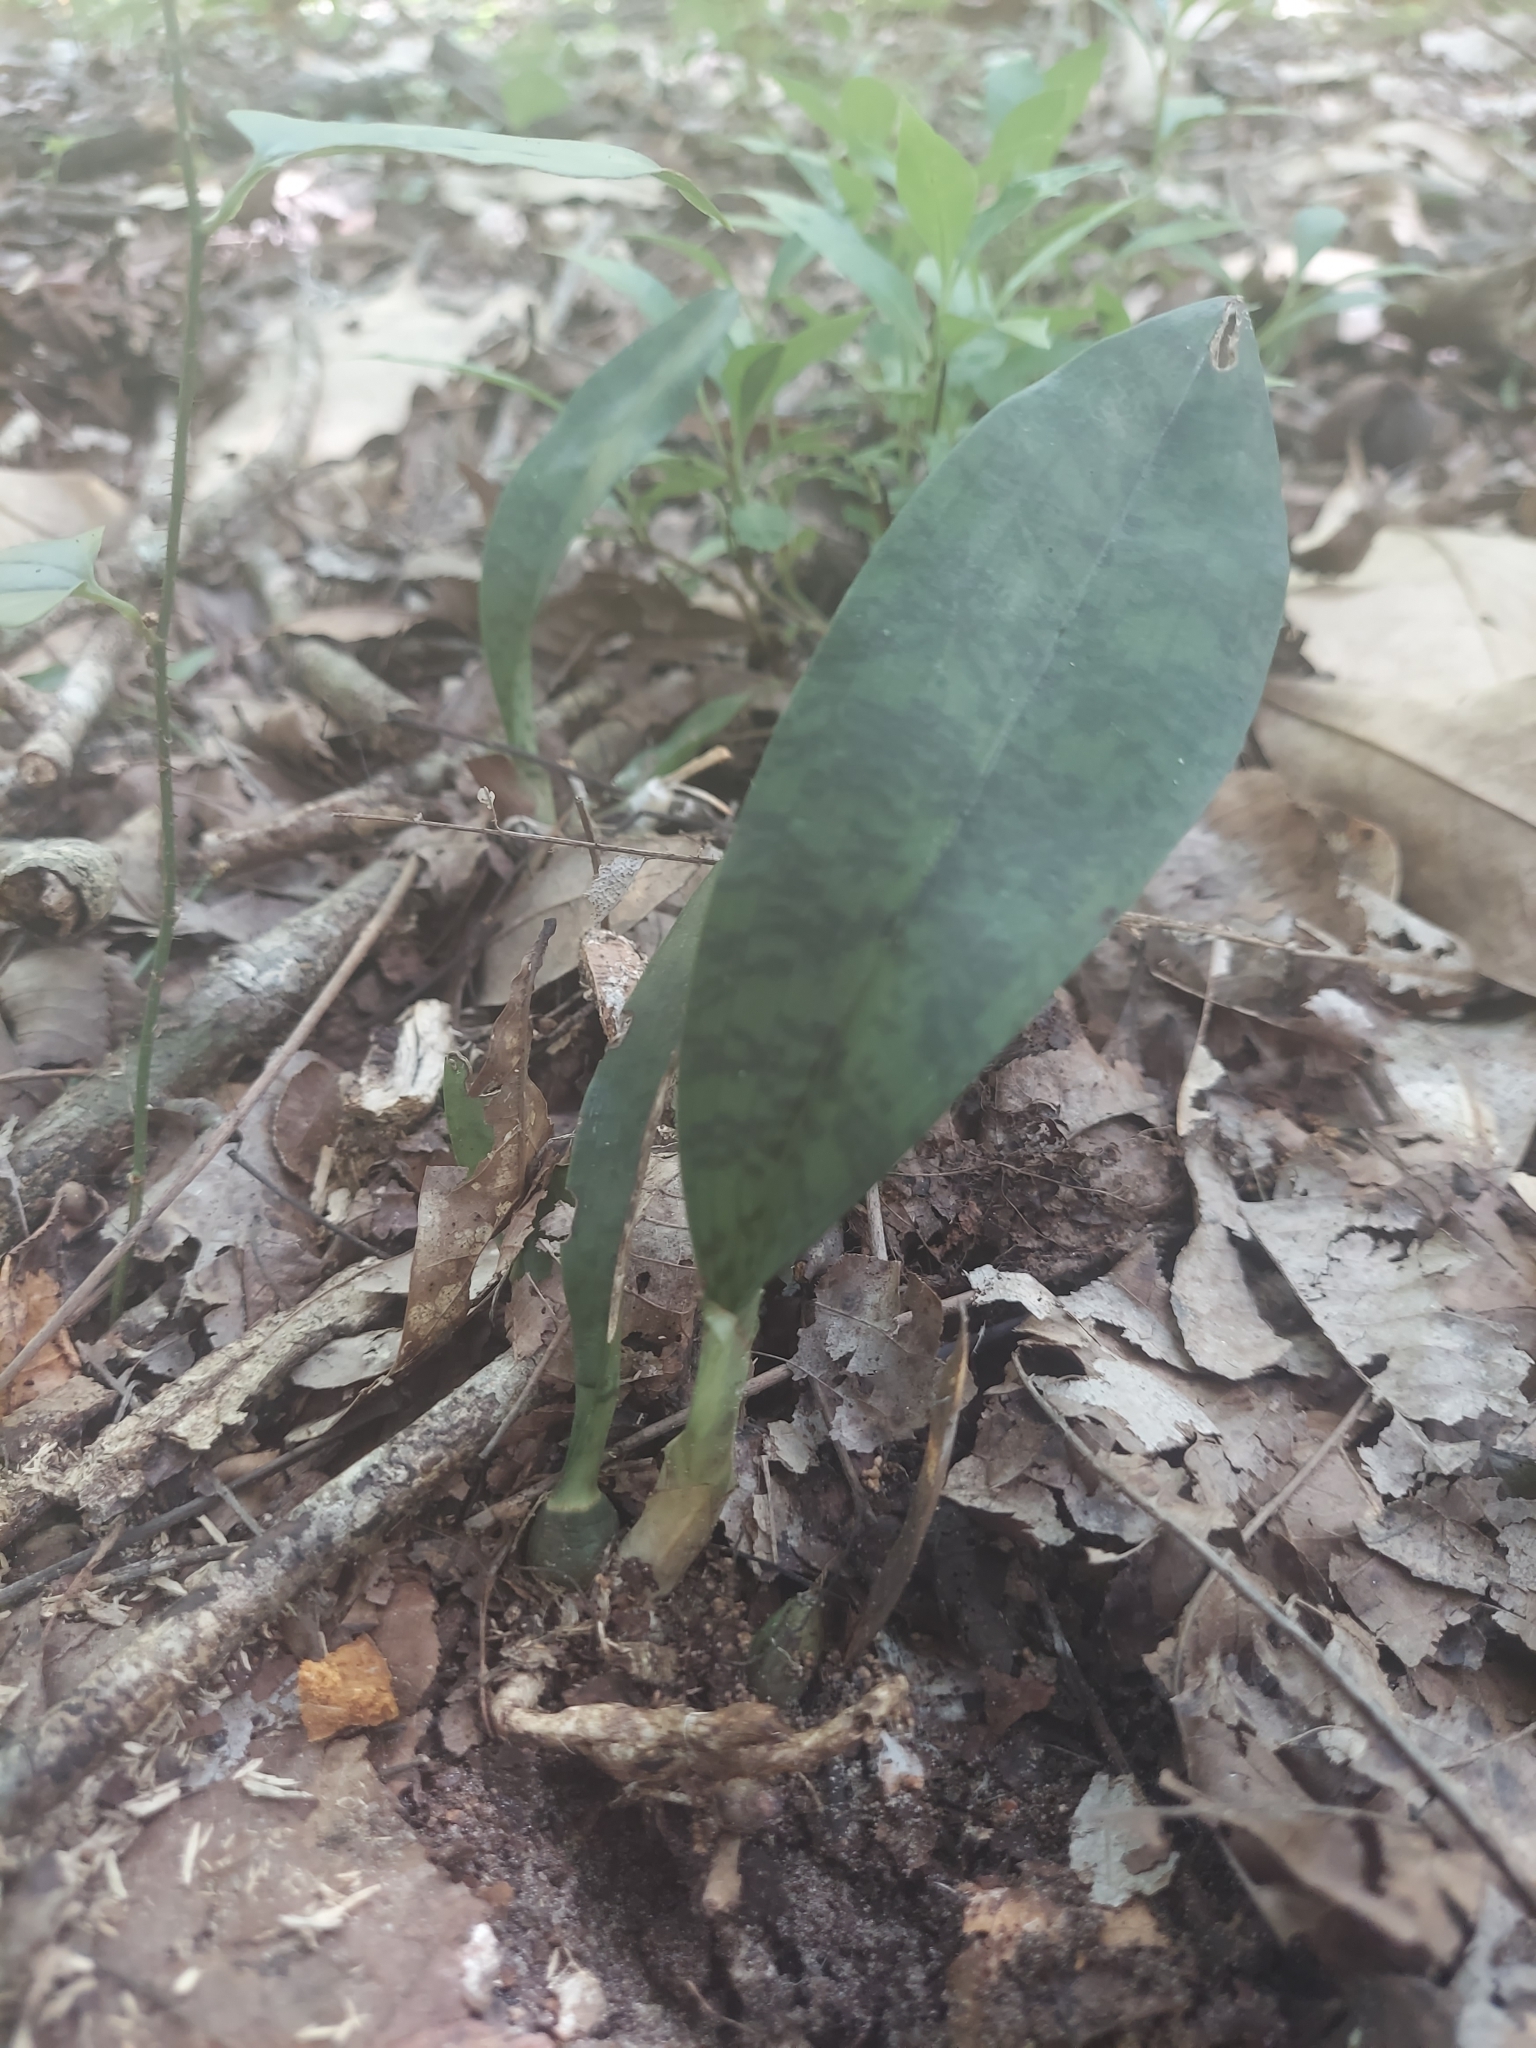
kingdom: Plantae
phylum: Tracheophyta
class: Liliopsida
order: Asparagales
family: Orchidaceae
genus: Eulophia
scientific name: Eulophia maculata
